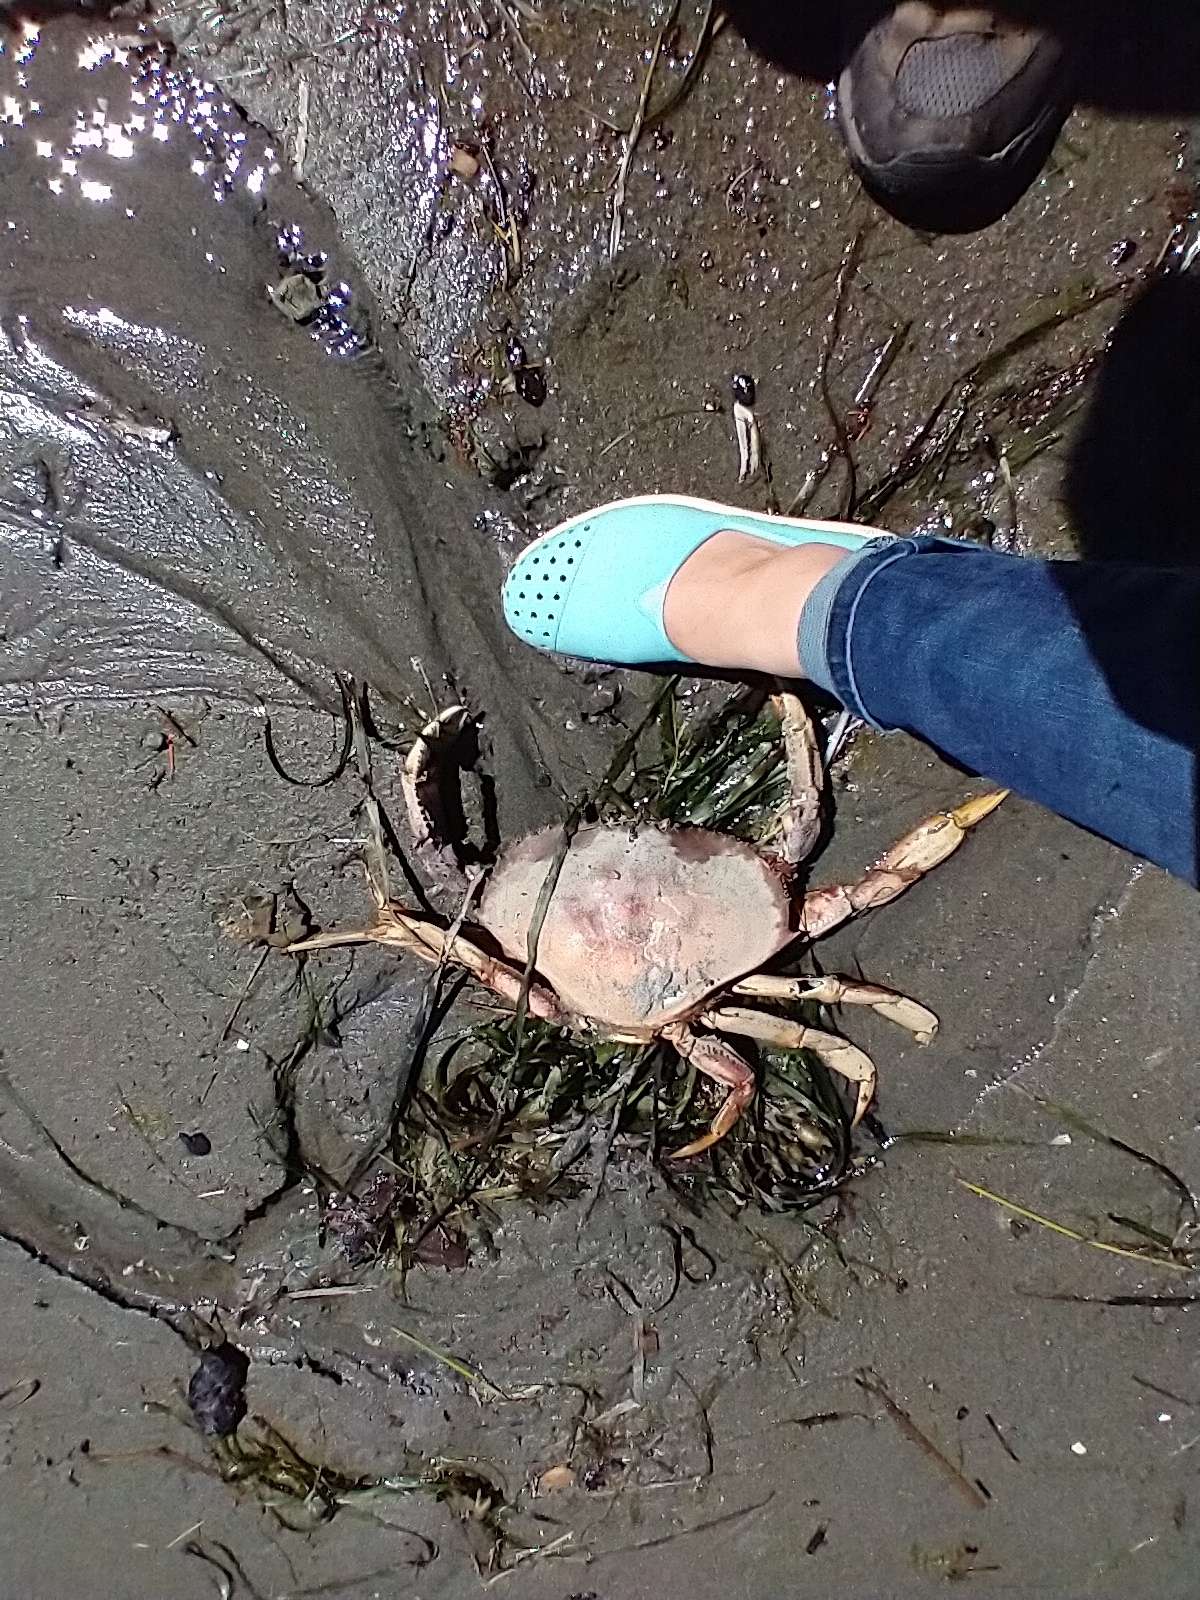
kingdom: Animalia
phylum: Arthropoda
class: Malacostraca
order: Decapoda
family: Cancridae
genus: Metacarcinus
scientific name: Metacarcinus magister
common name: Californian crab
